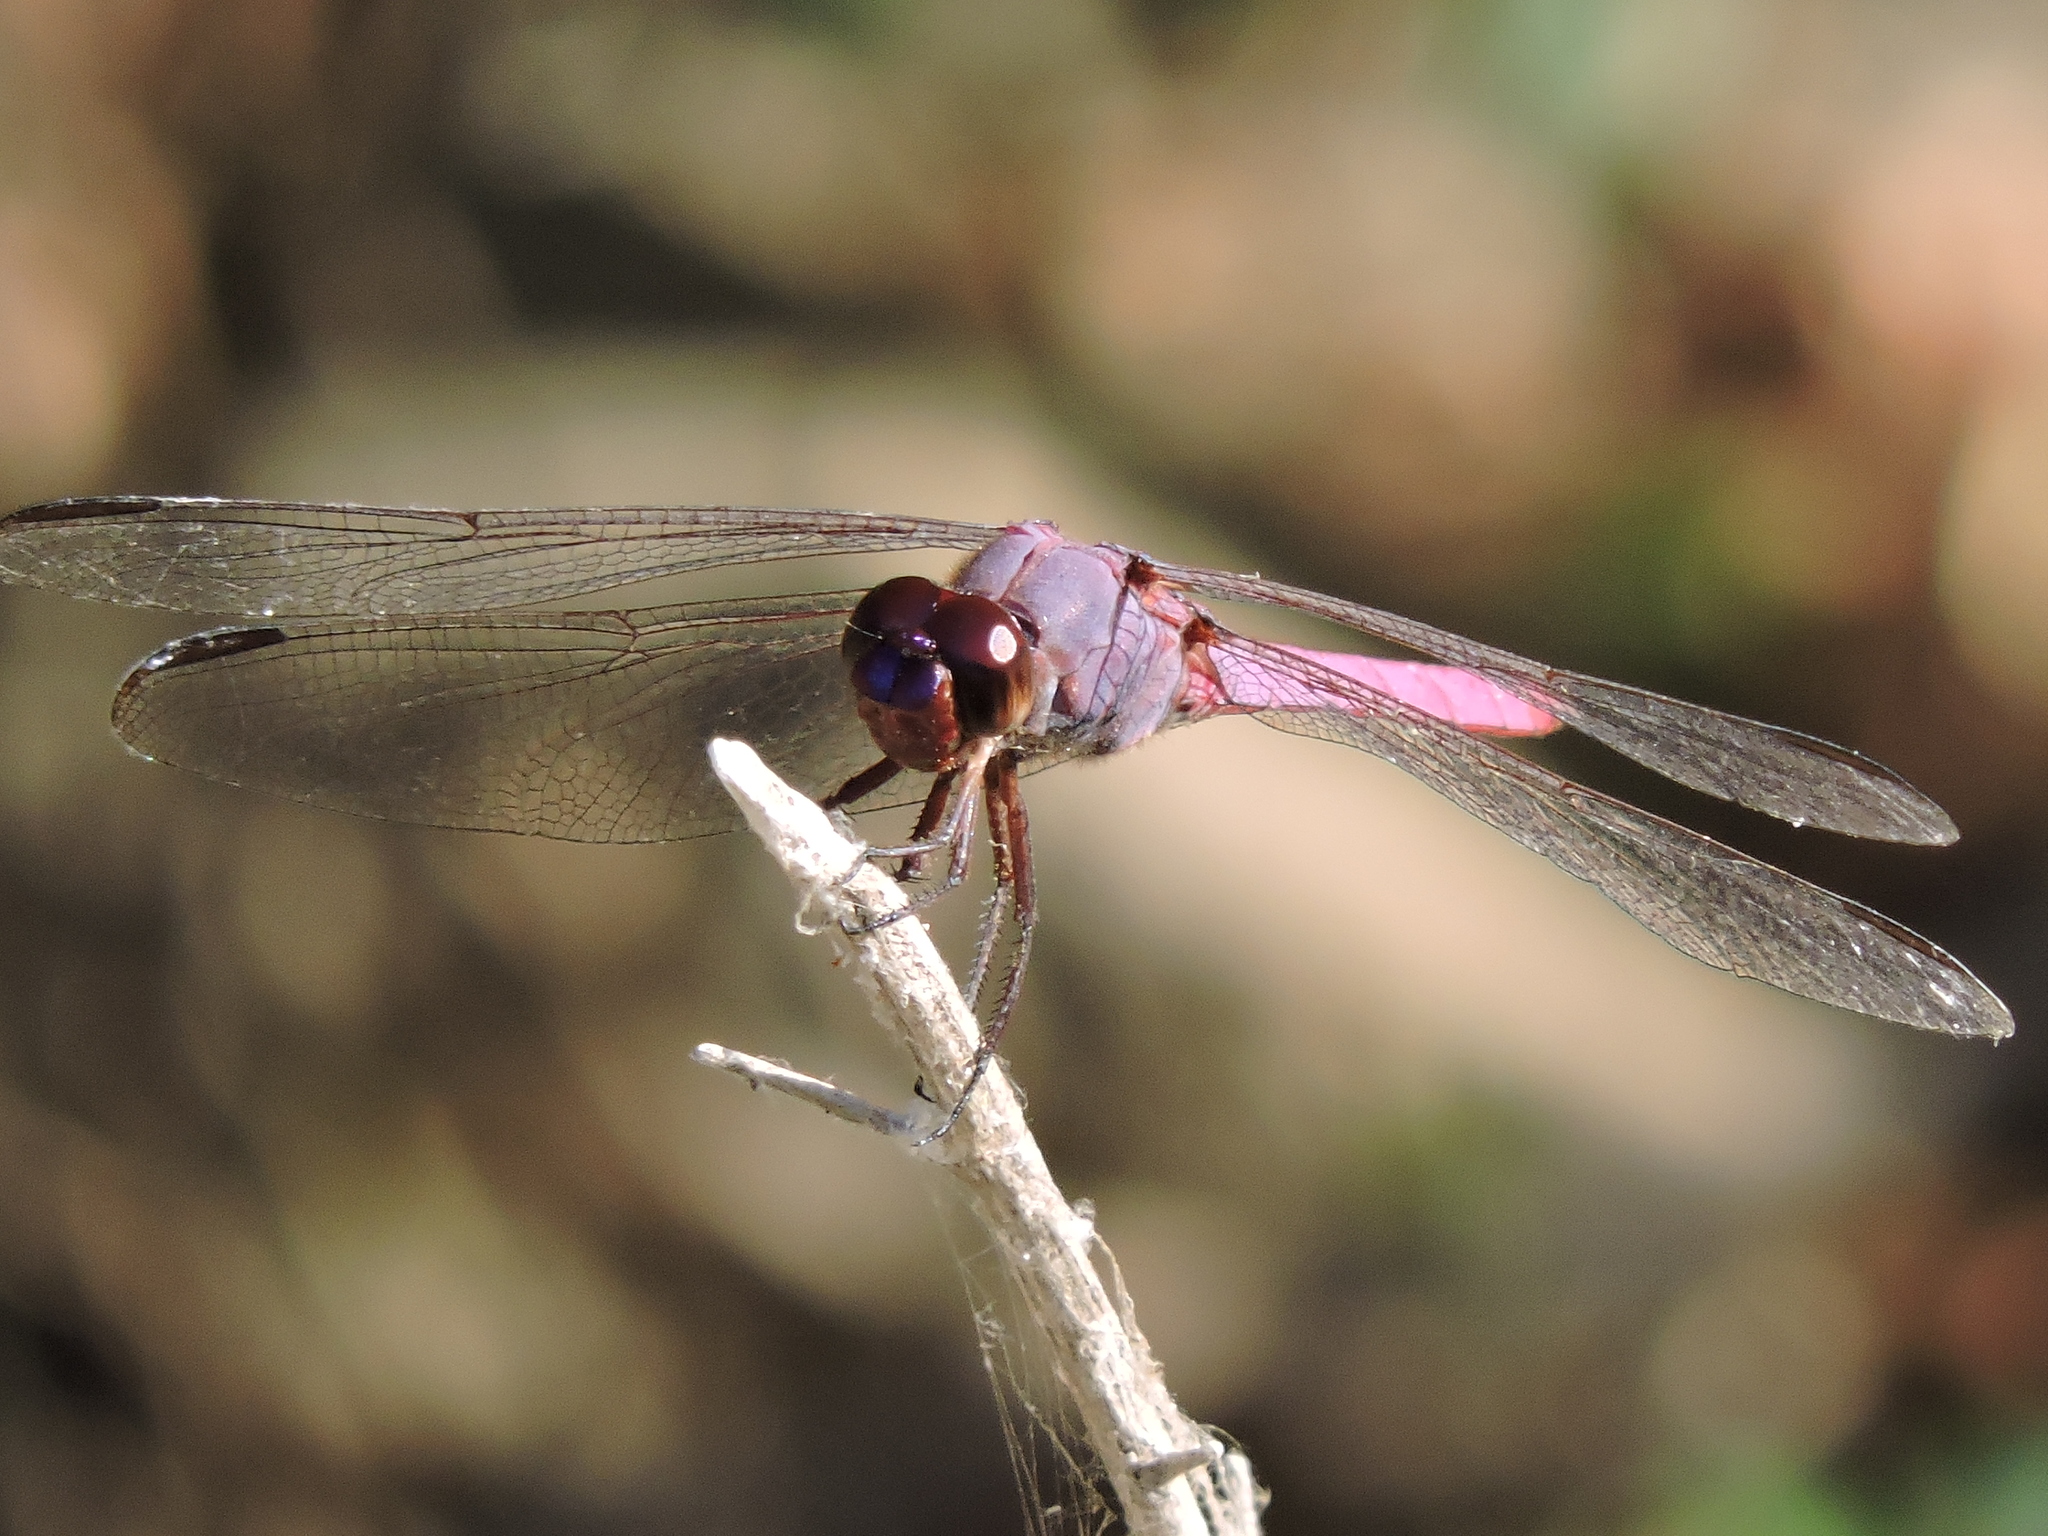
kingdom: Animalia
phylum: Arthropoda
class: Insecta
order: Odonata
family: Libellulidae
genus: Orthemis
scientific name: Orthemis ferruginea
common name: Roseate skimmer
